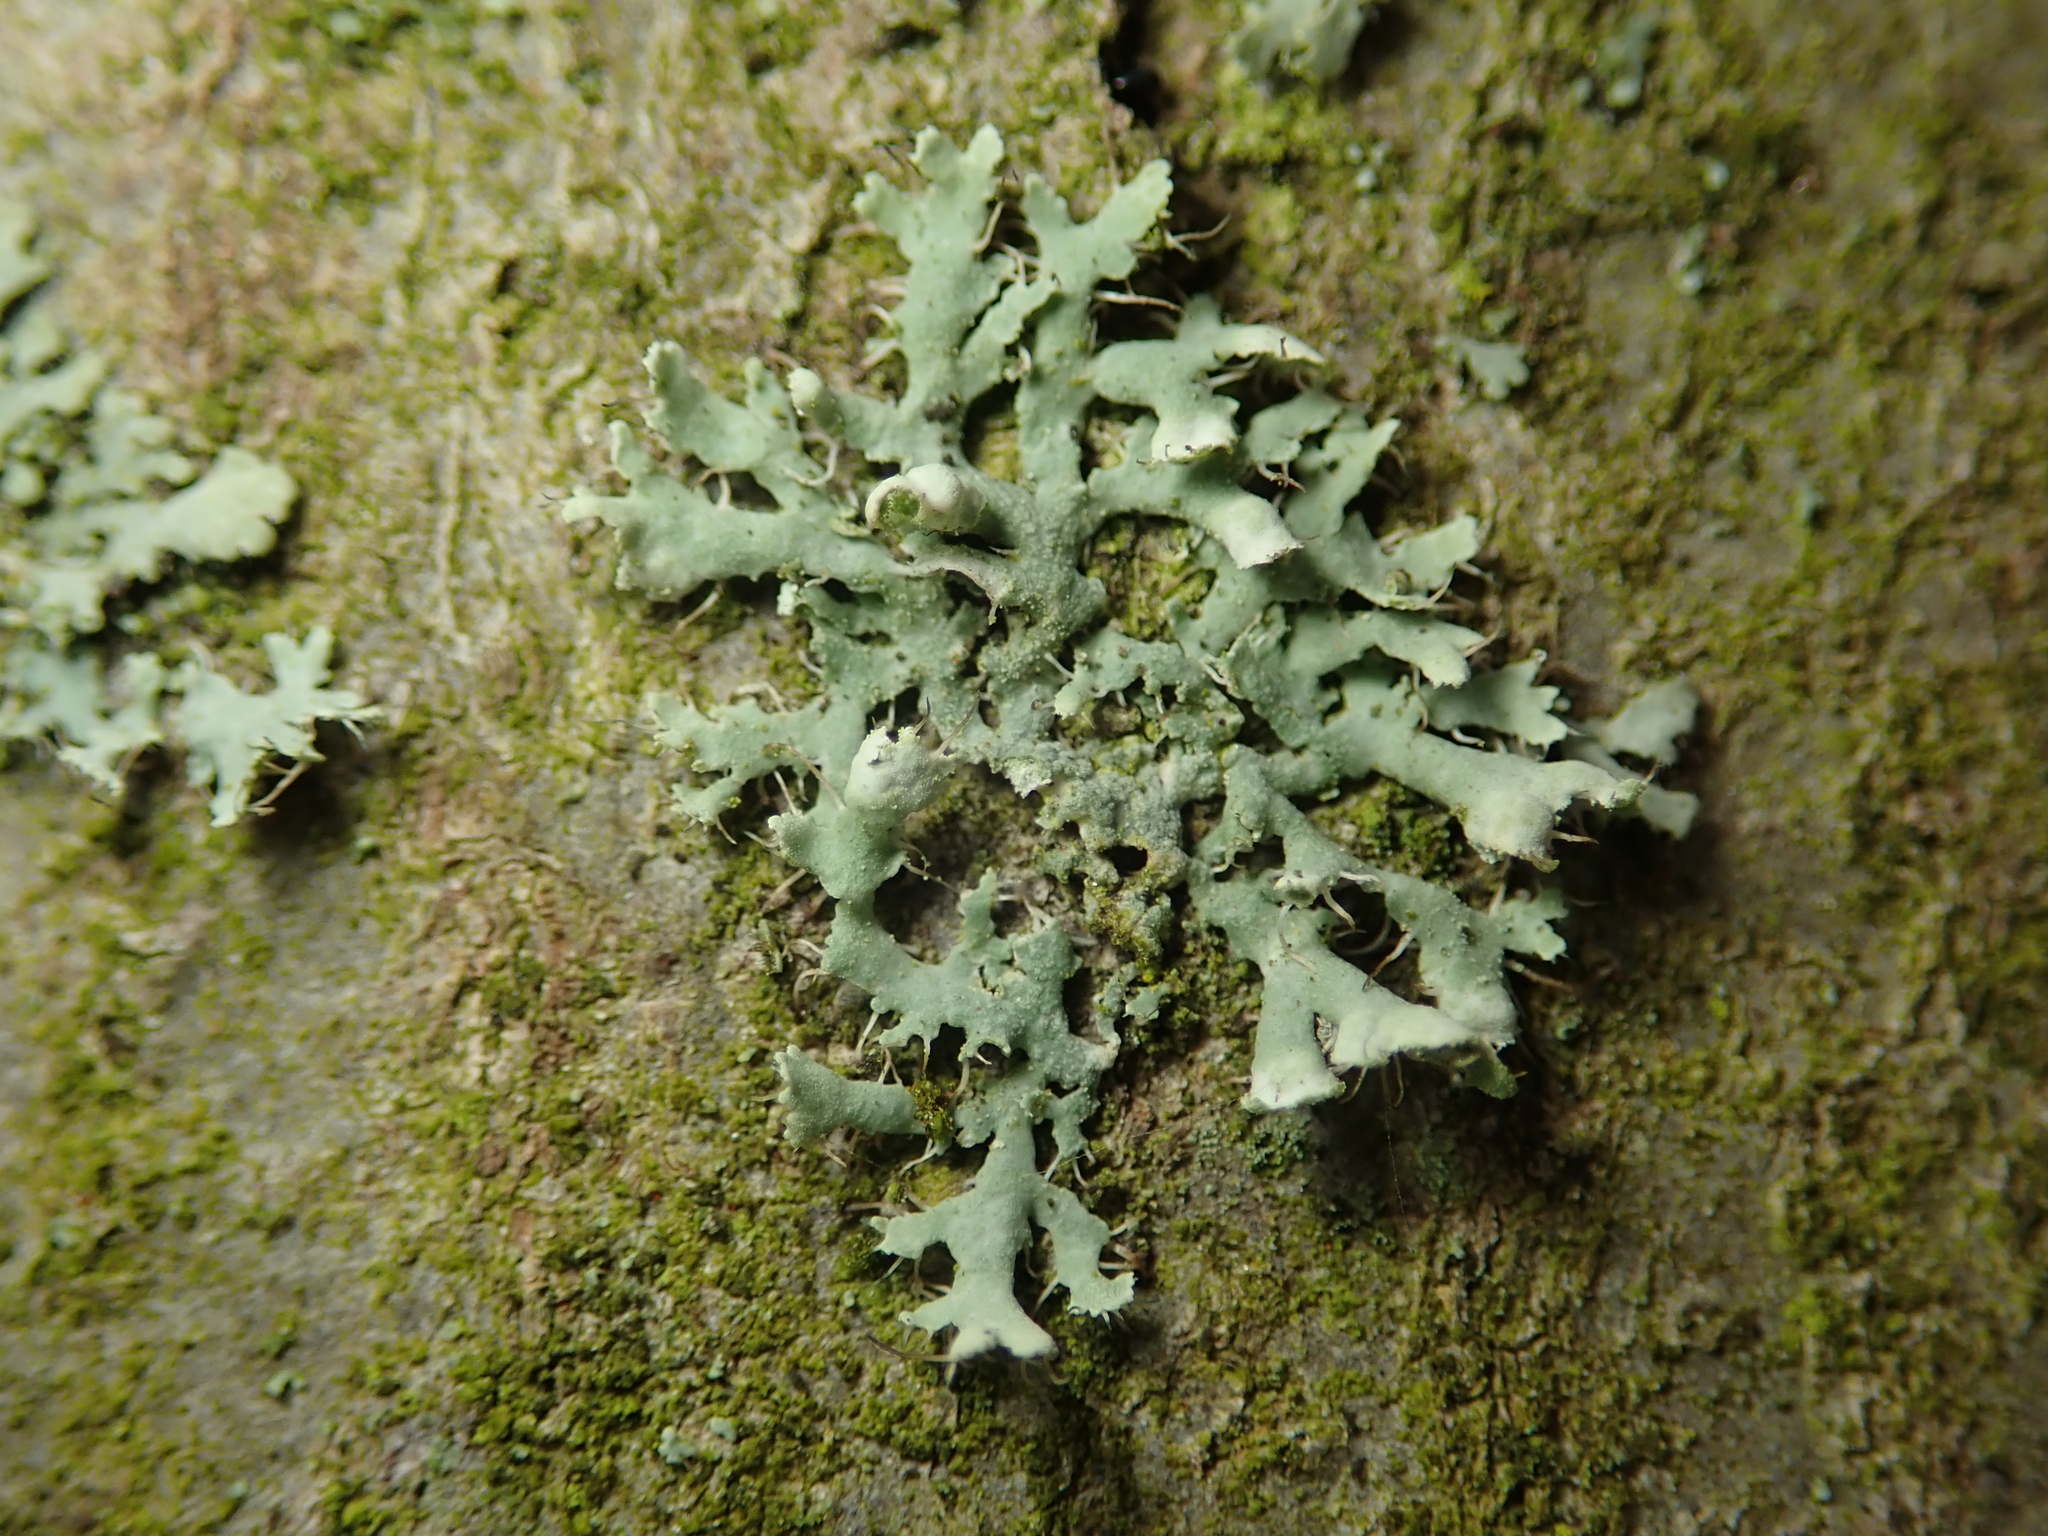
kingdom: Fungi
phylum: Ascomycota
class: Lecanoromycetes
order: Caliciales
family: Physciaceae
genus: Physcia
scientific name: Physcia adscendens
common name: Hooded rosette lichen
